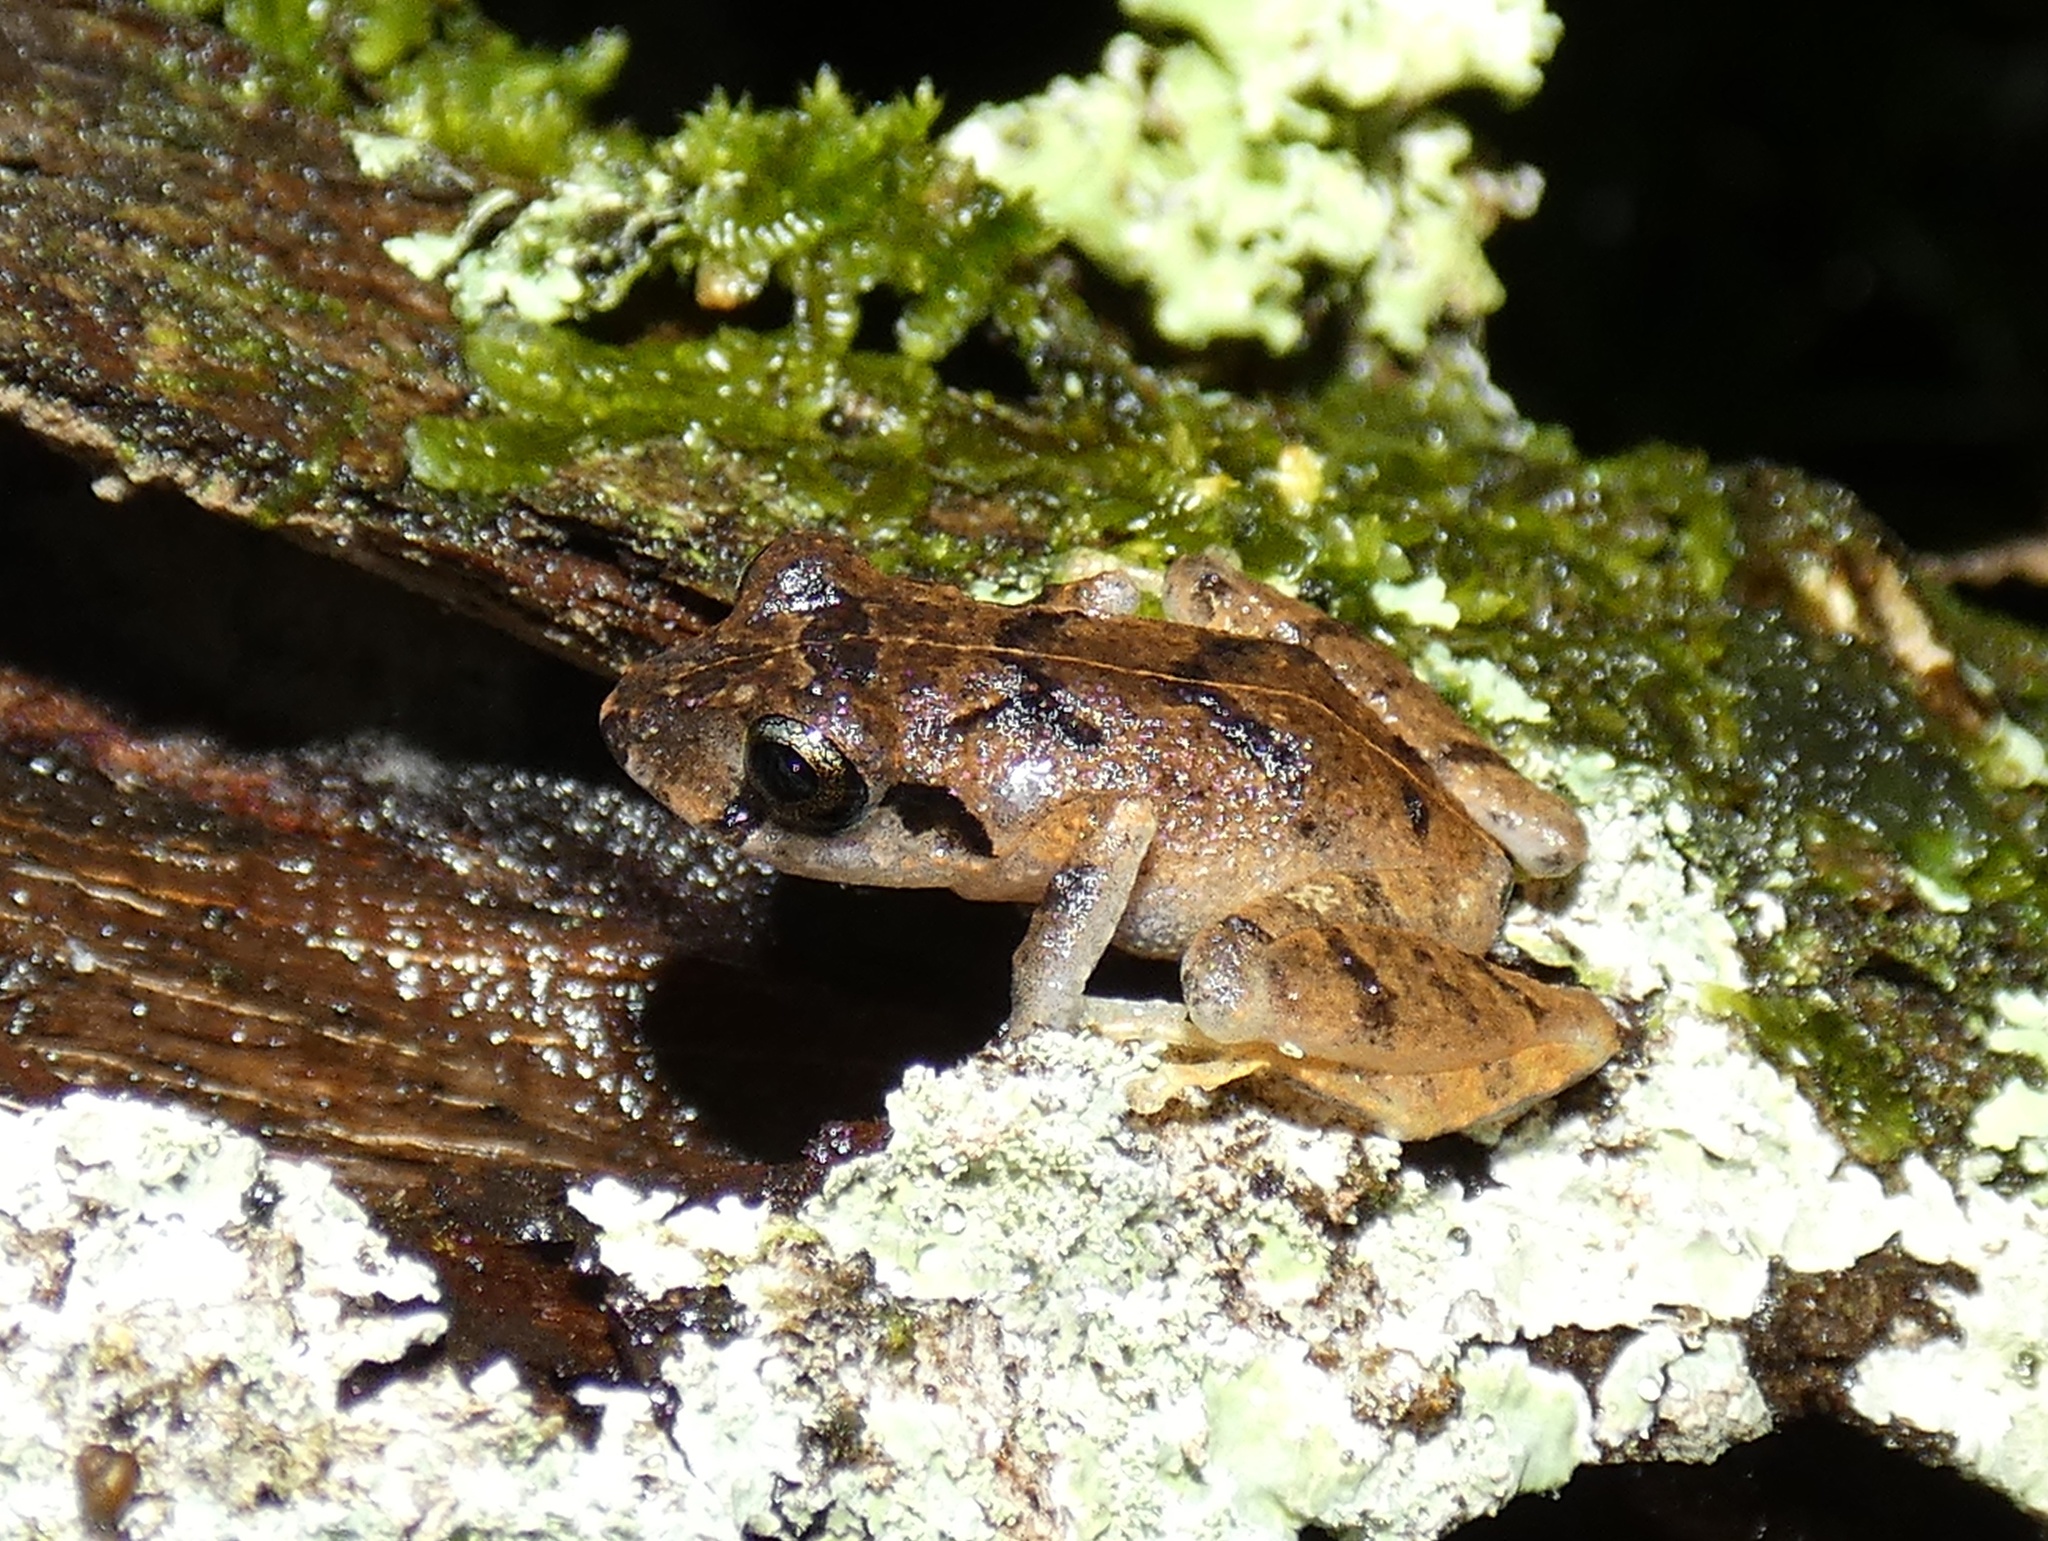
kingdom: Animalia
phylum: Chordata
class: Amphibia
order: Anura
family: Craugastoridae
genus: Pristimantis
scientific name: Pristimantis taeniatus
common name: Banded robber frog
